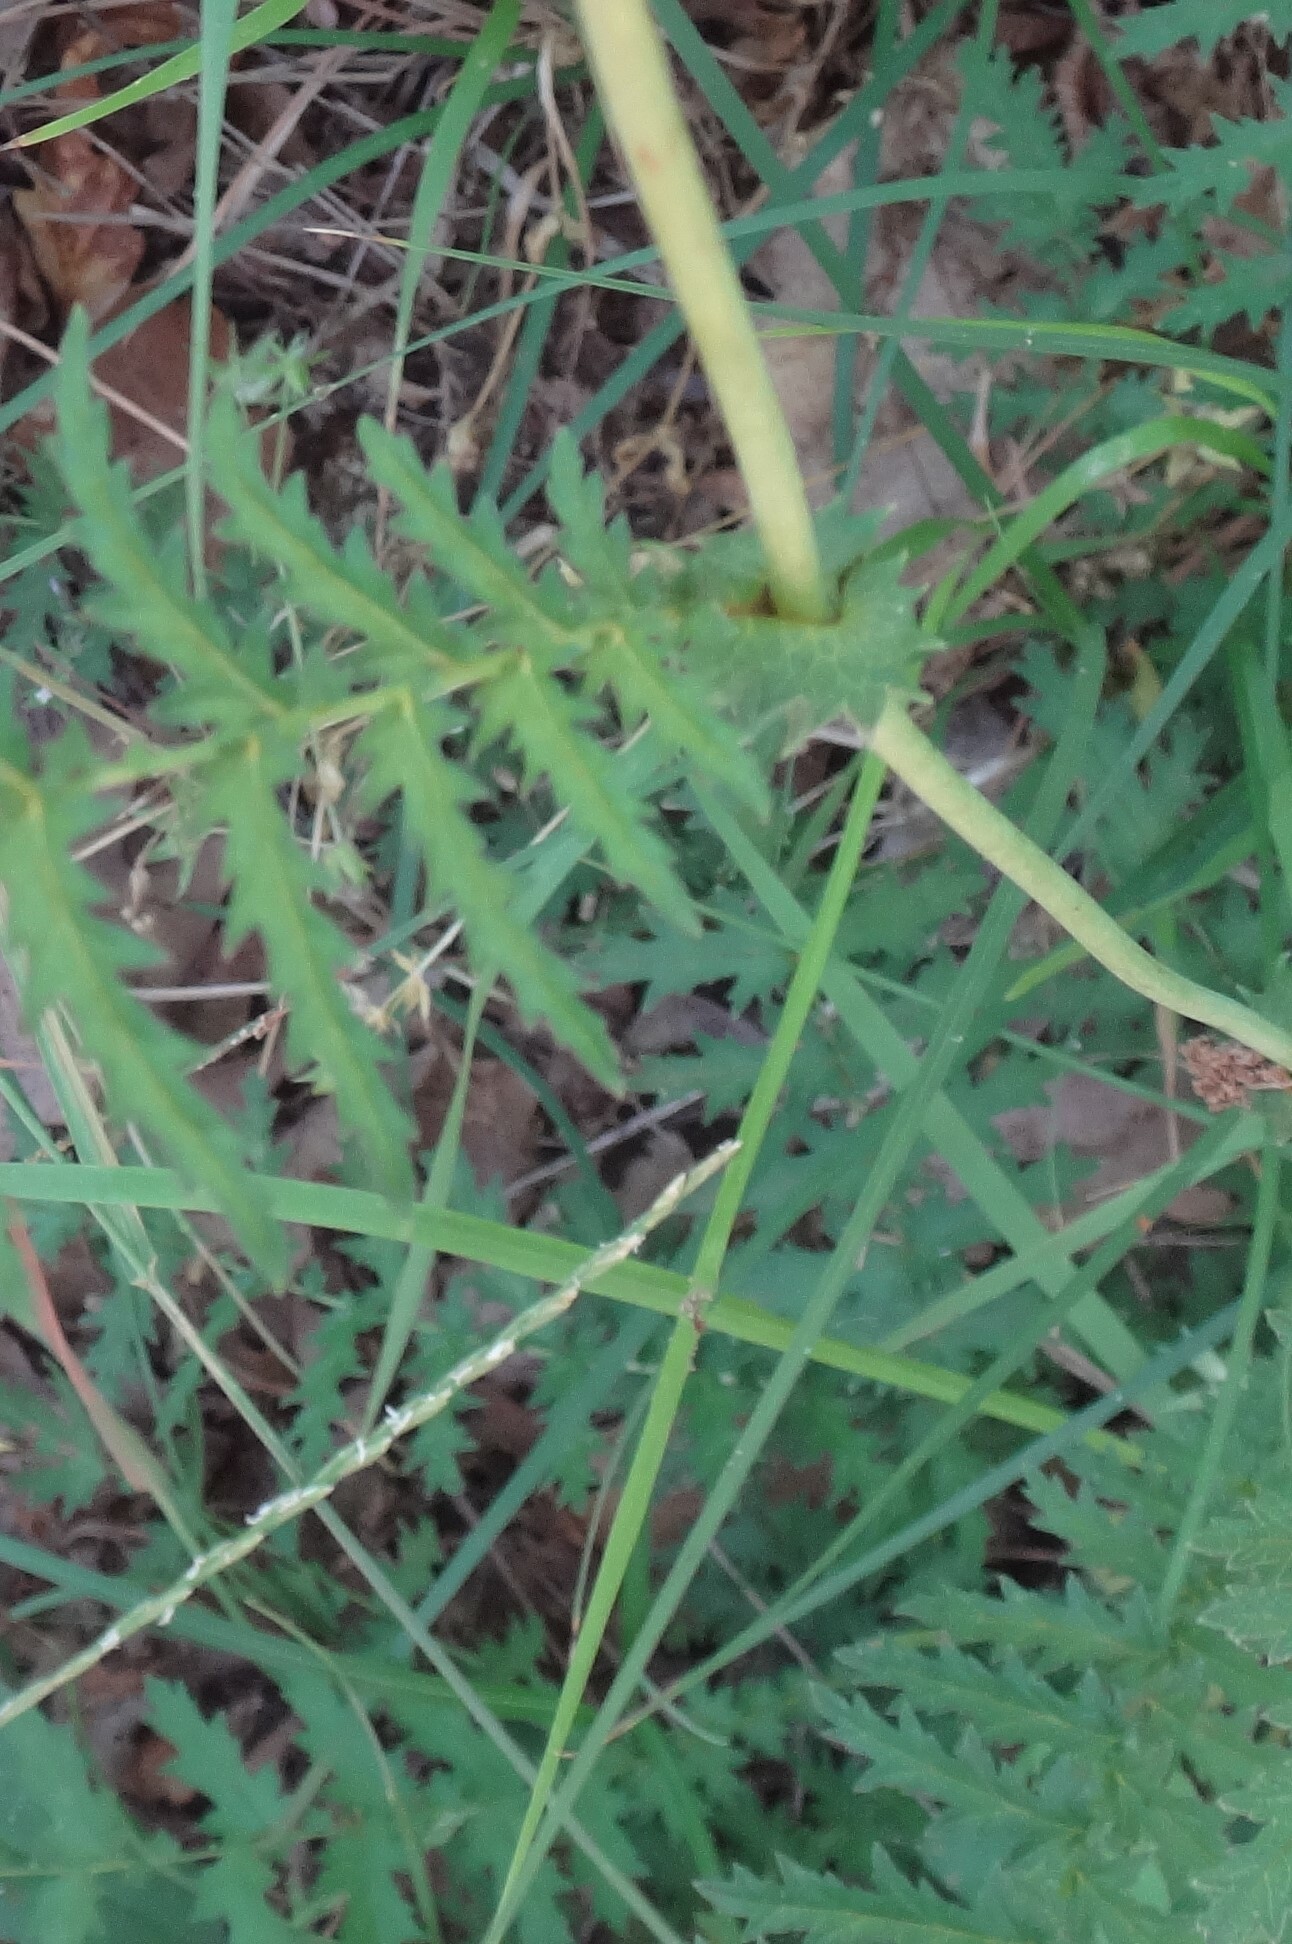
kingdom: Plantae
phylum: Tracheophyta
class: Magnoliopsida
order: Rosales
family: Rosaceae
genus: Filipendula
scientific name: Filipendula vulgaris
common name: Dropwort
